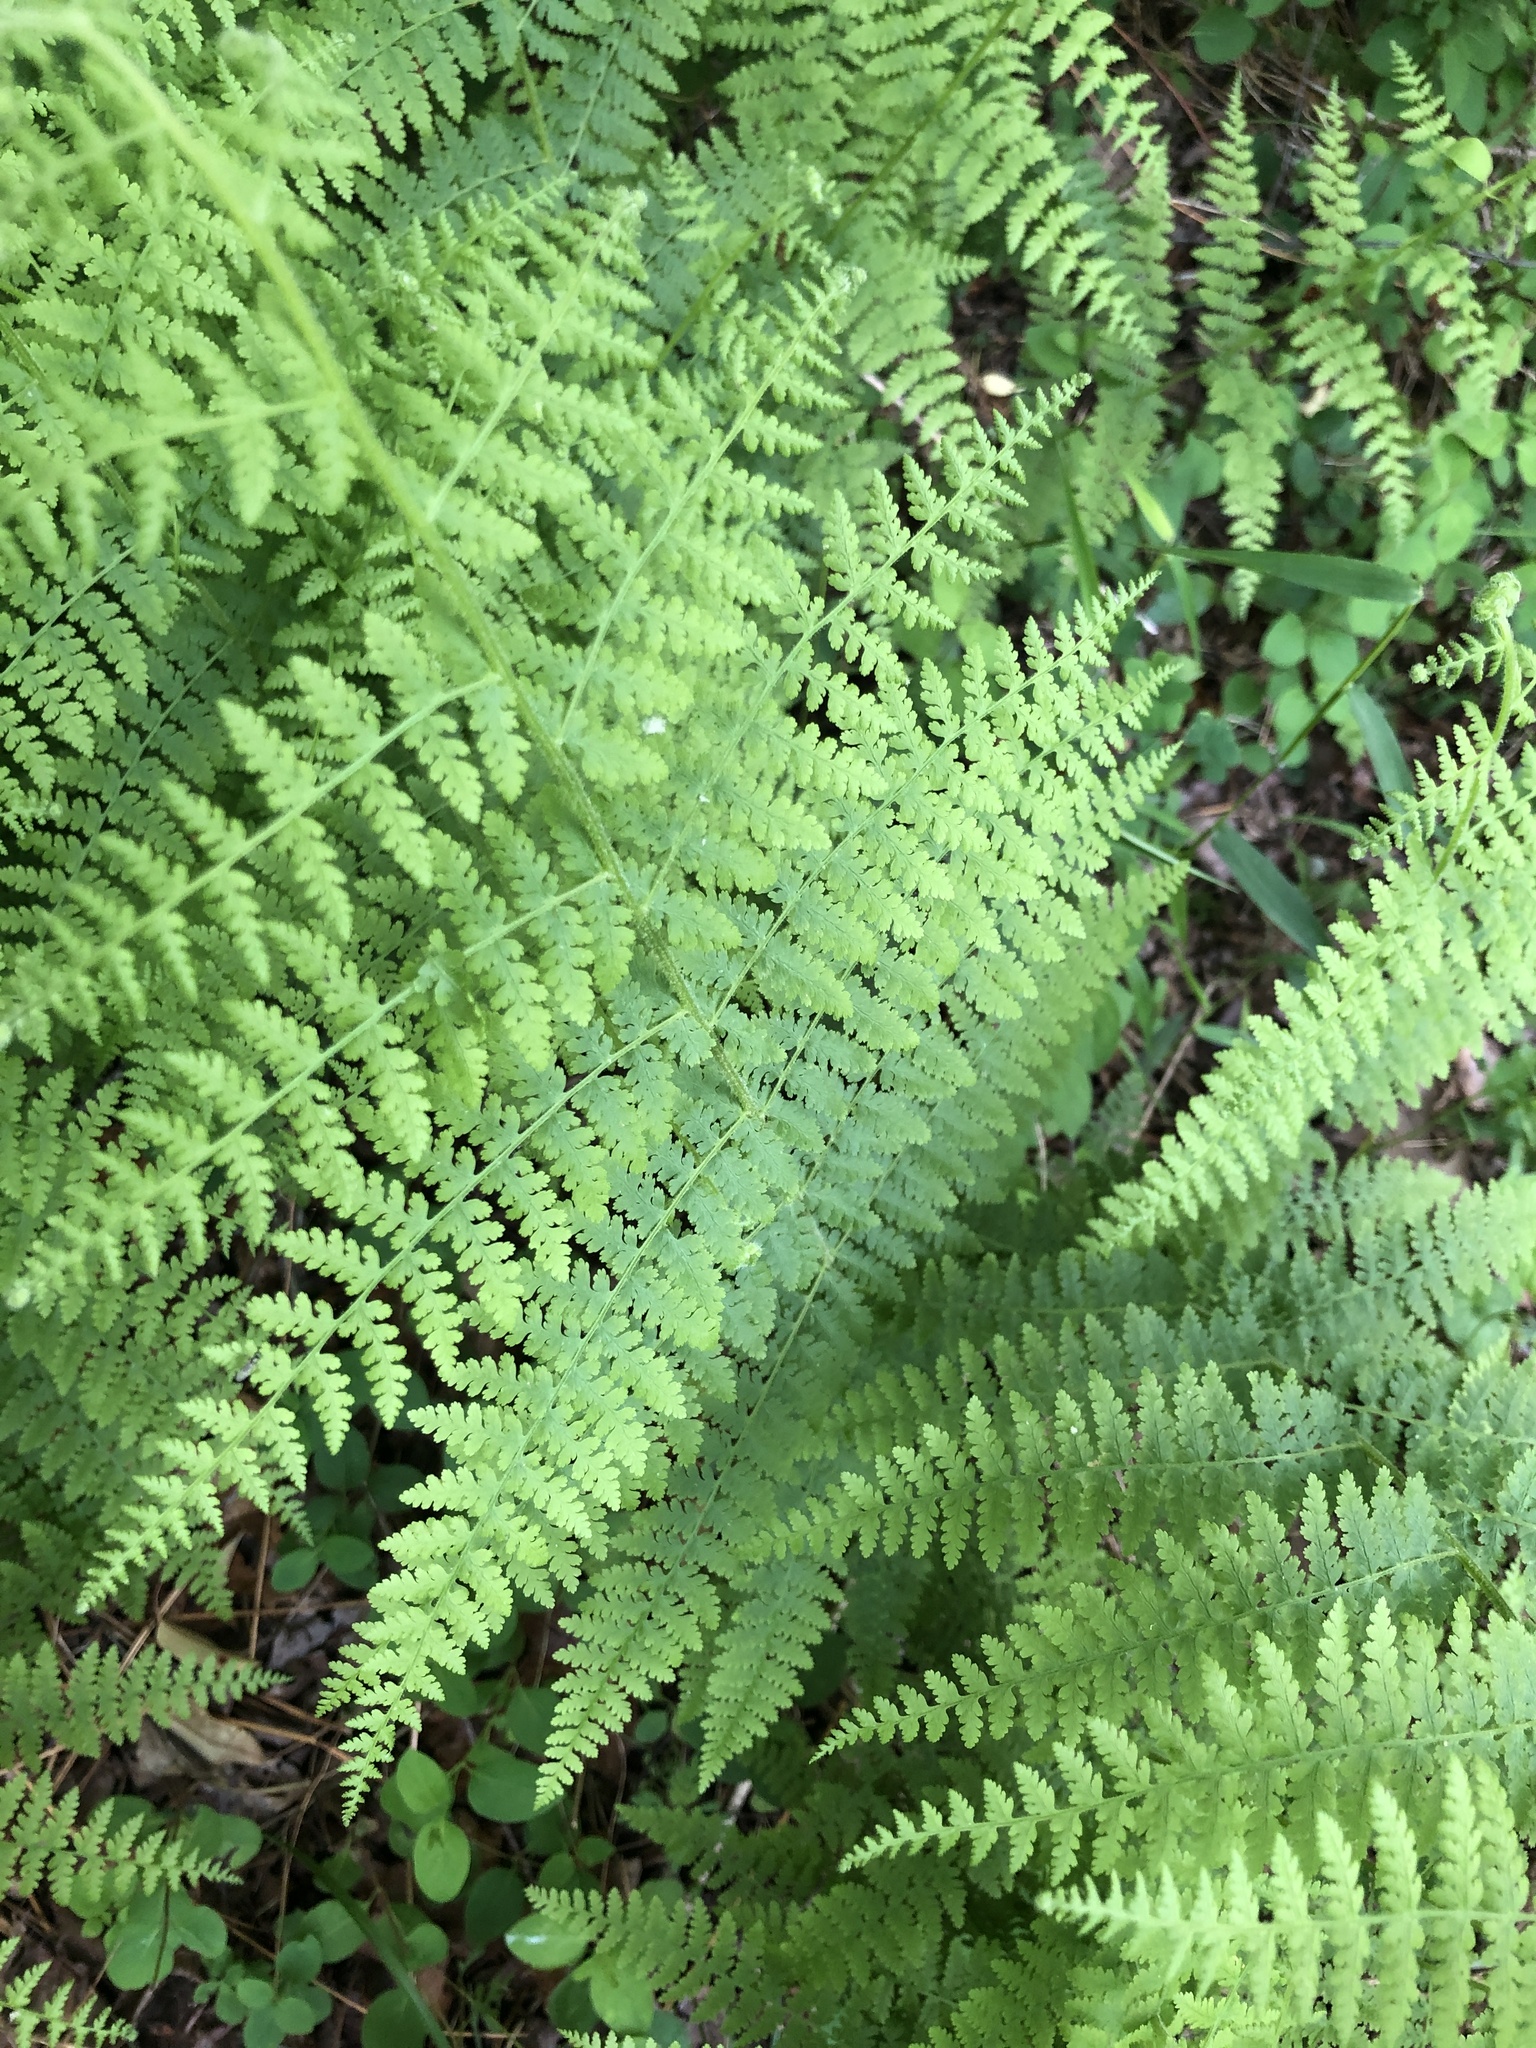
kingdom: Plantae
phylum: Tracheophyta
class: Polypodiopsida
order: Polypodiales
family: Dennstaedtiaceae
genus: Sitobolium
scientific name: Sitobolium punctilobum
